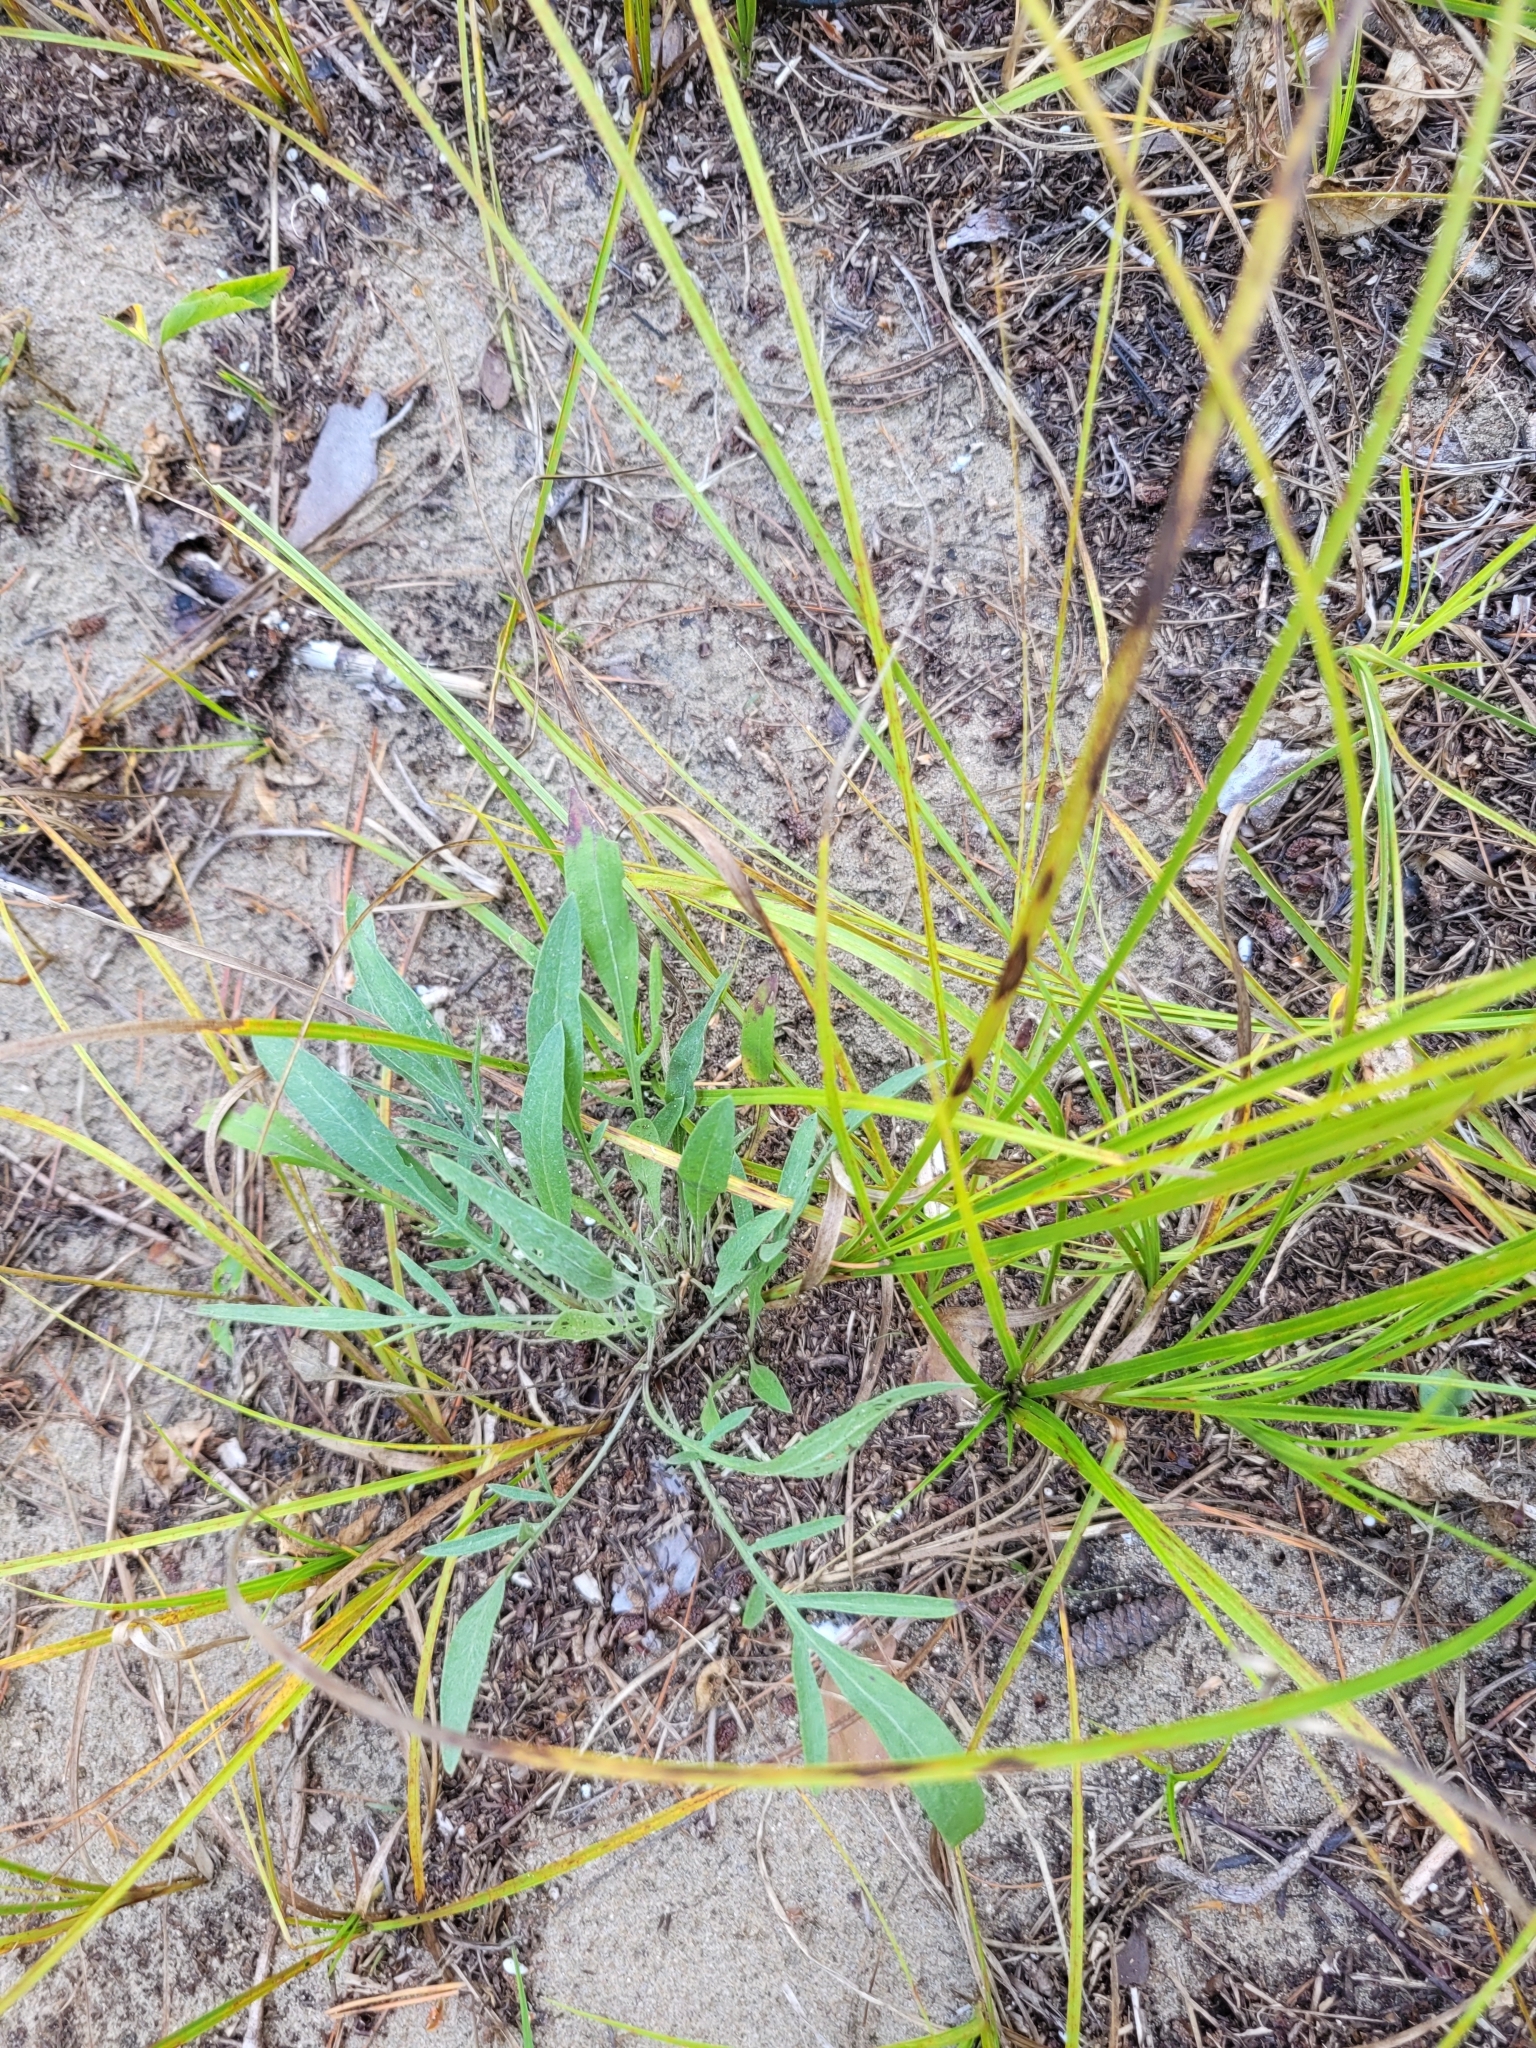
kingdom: Plantae
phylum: Tracheophyta
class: Magnoliopsida
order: Asterales
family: Asteraceae
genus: Centaurea
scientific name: Centaurea stoebe
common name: Spotted knapweed
